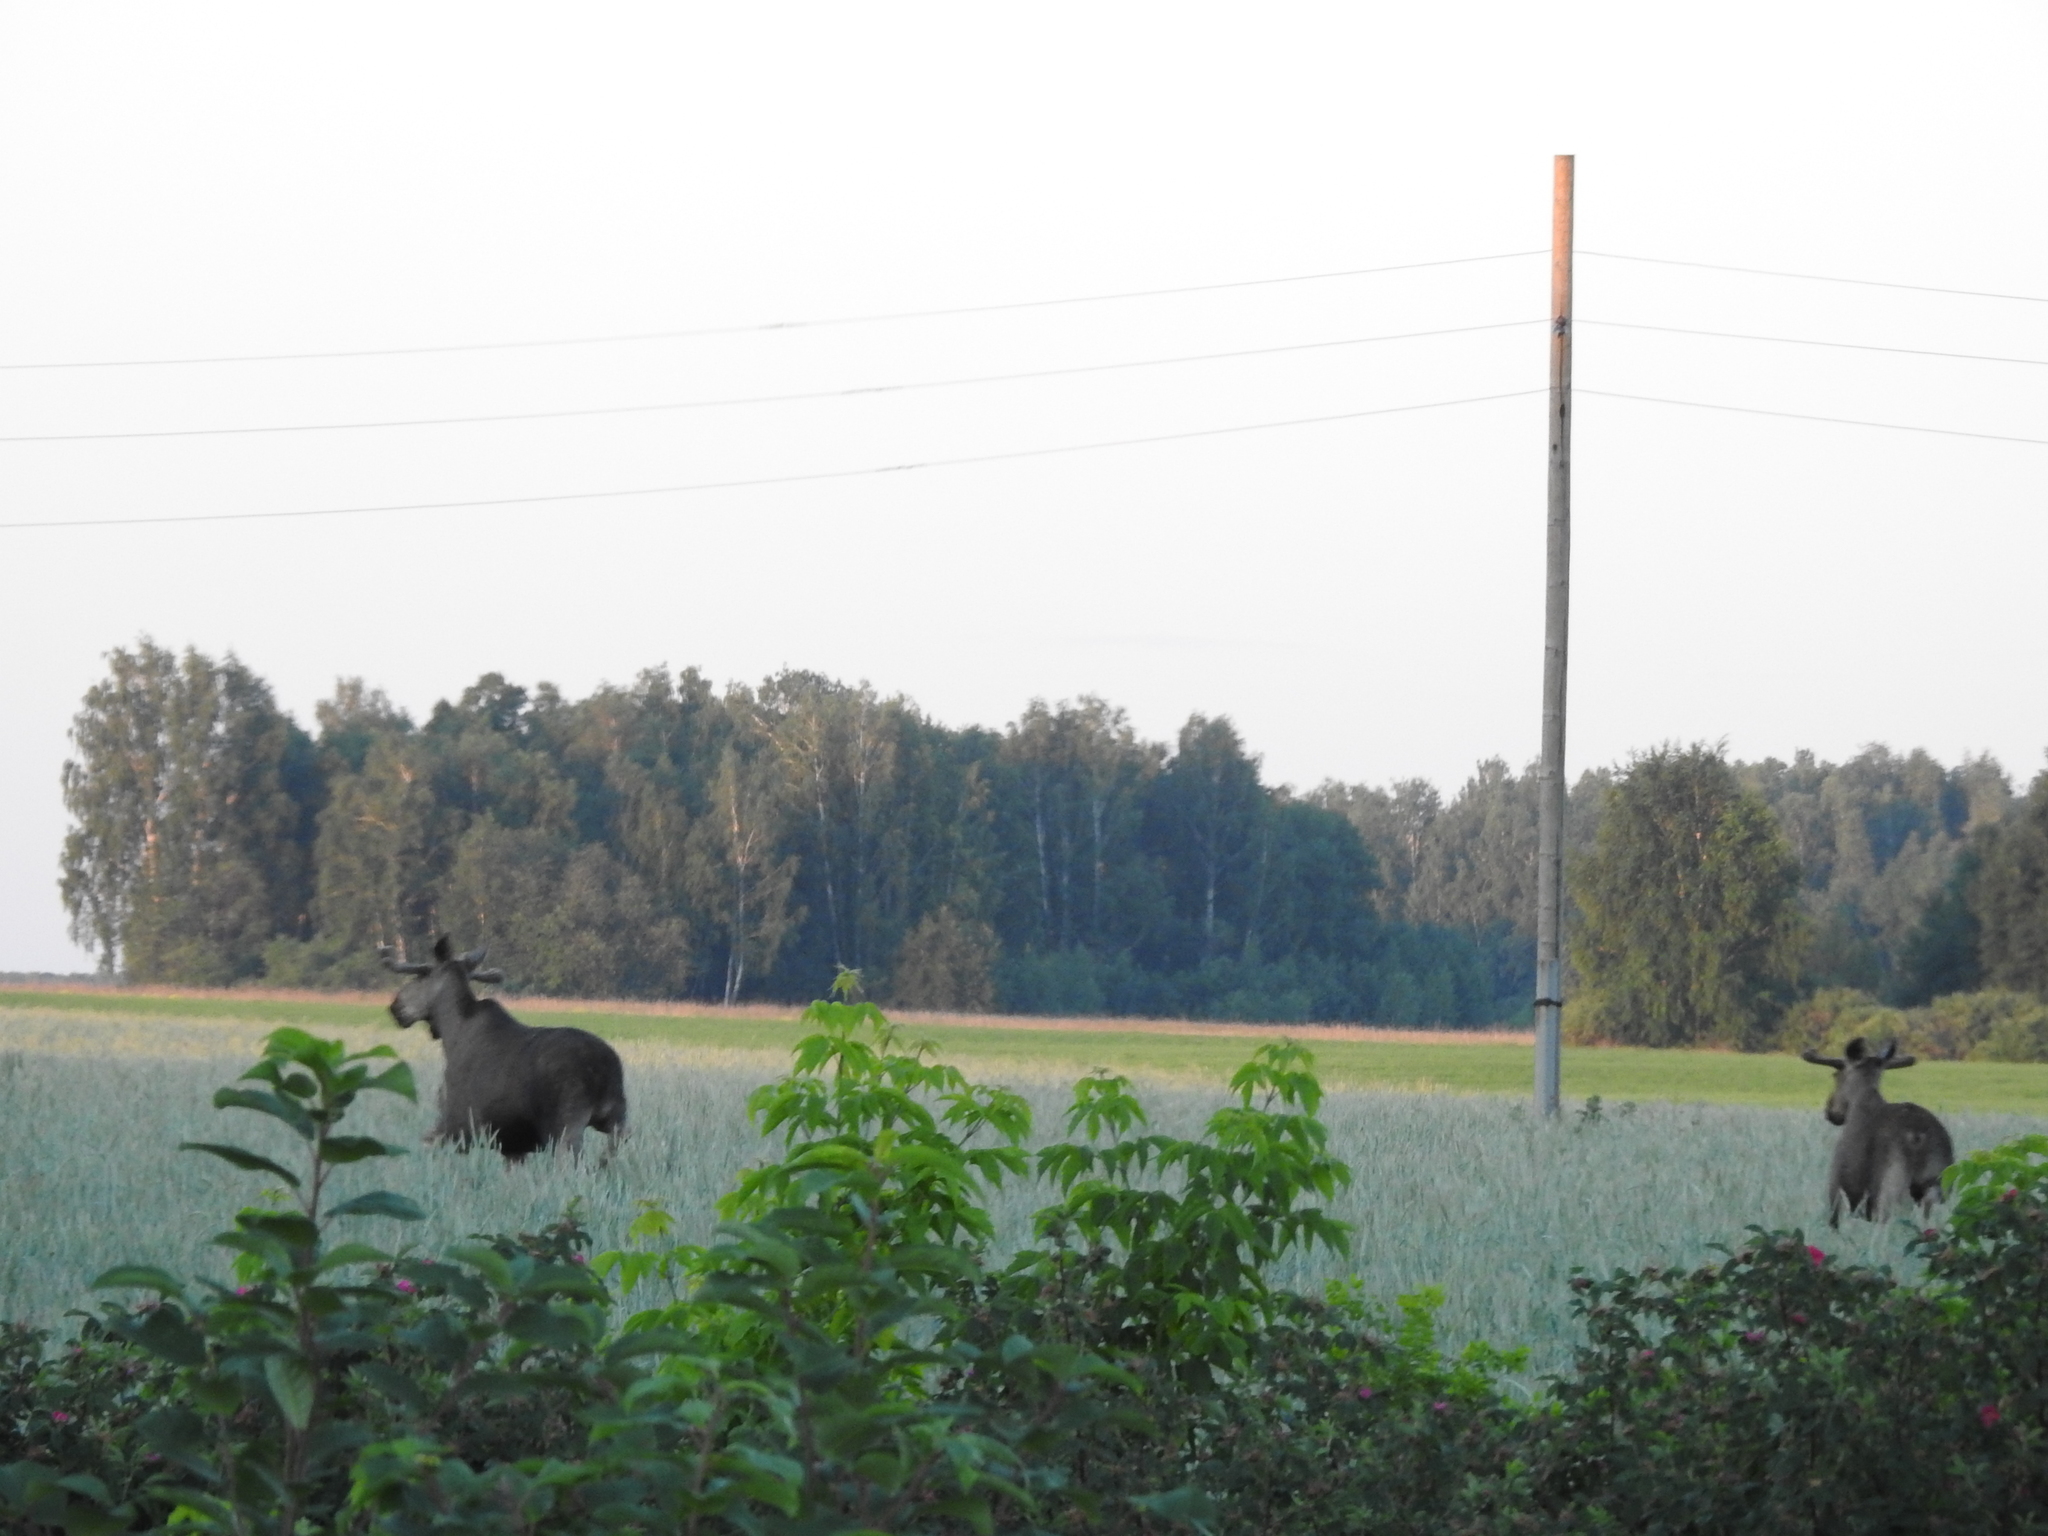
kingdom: Animalia
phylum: Chordata
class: Mammalia
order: Artiodactyla
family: Cervidae
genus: Alces
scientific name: Alces alces
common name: Moose
